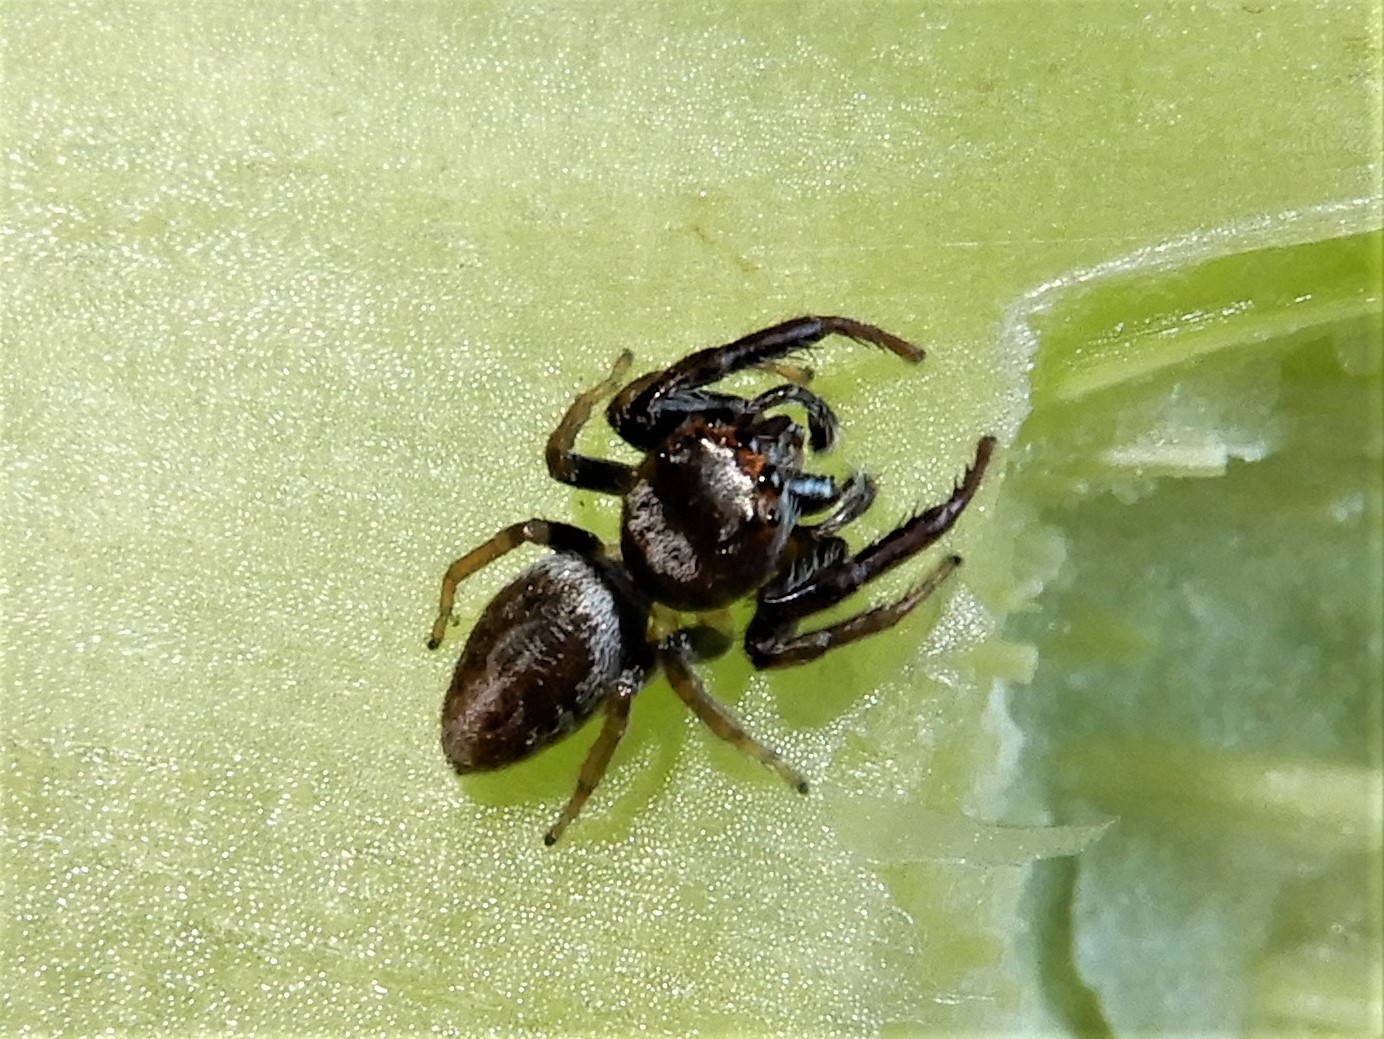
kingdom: Animalia
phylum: Arthropoda
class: Arachnida
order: Araneae
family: Salticidae
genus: Opisthoncus
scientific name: Opisthoncus polyphemus
